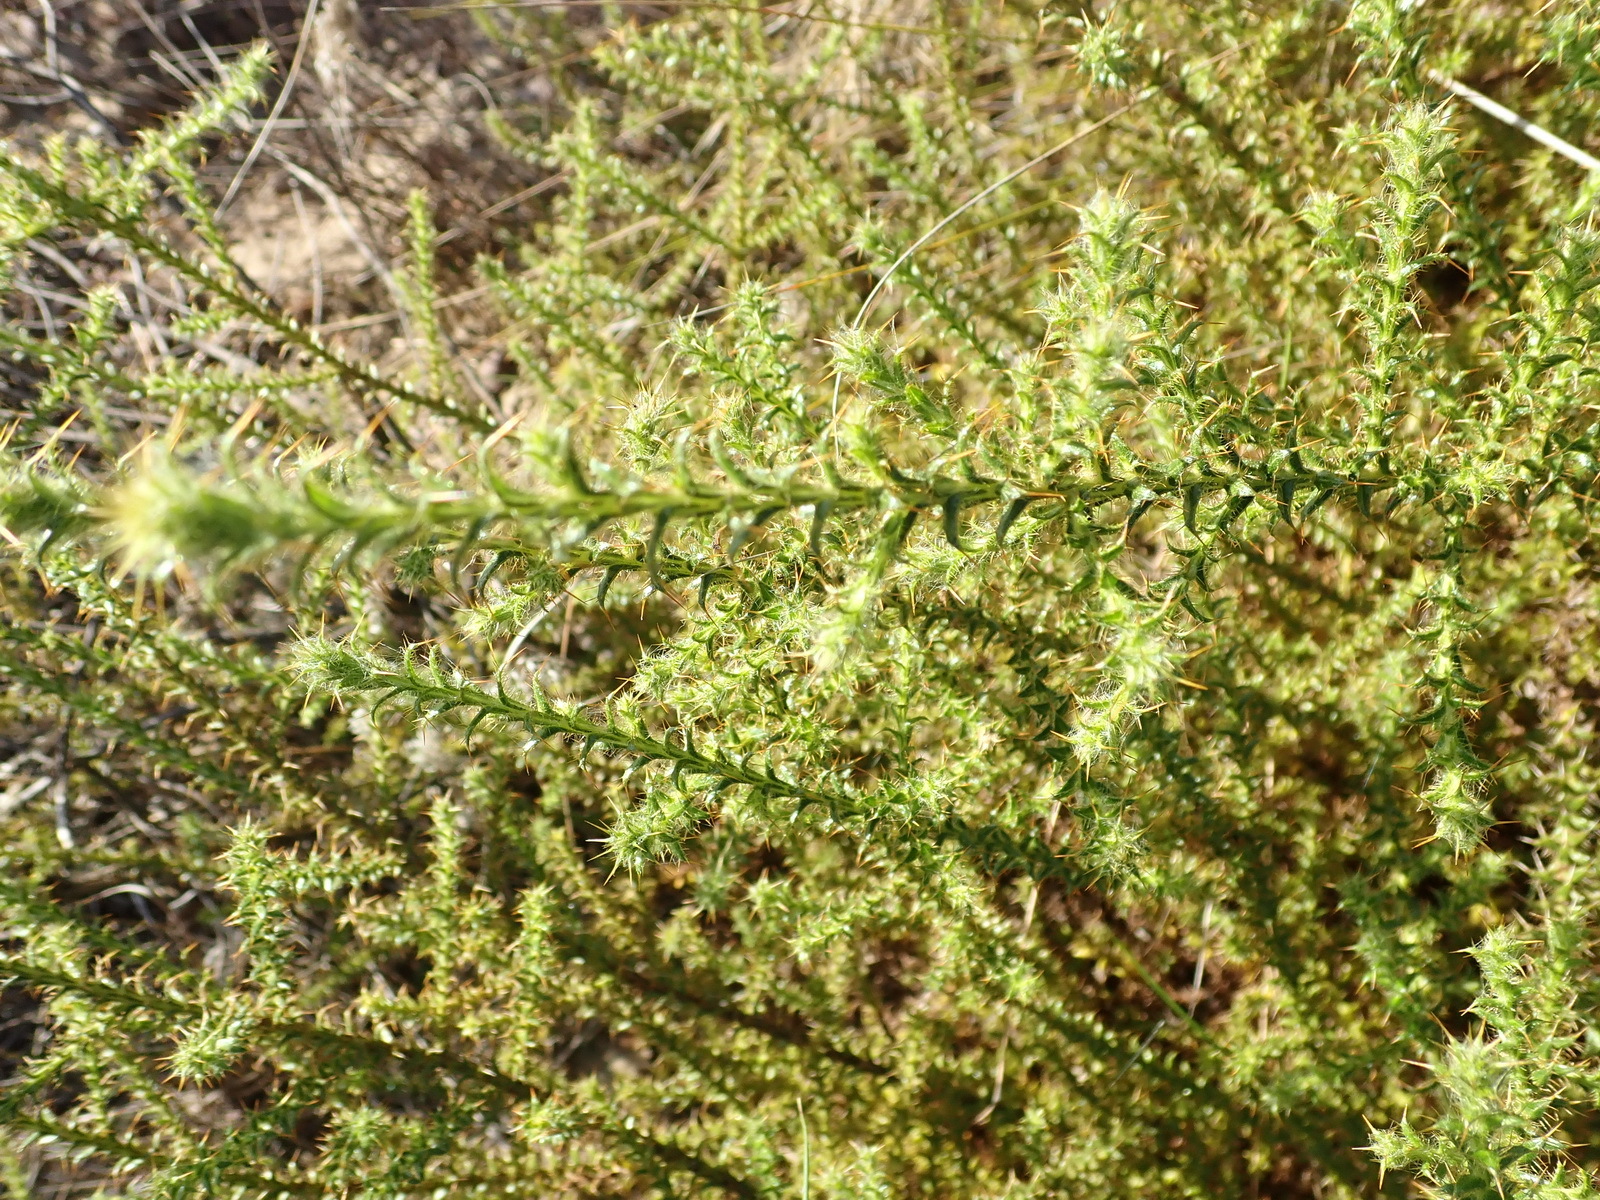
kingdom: Plantae
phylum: Tracheophyta
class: Magnoliopsida
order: Asterales
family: Asteraceae
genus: Cullumia
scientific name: Cullumia reticulata
